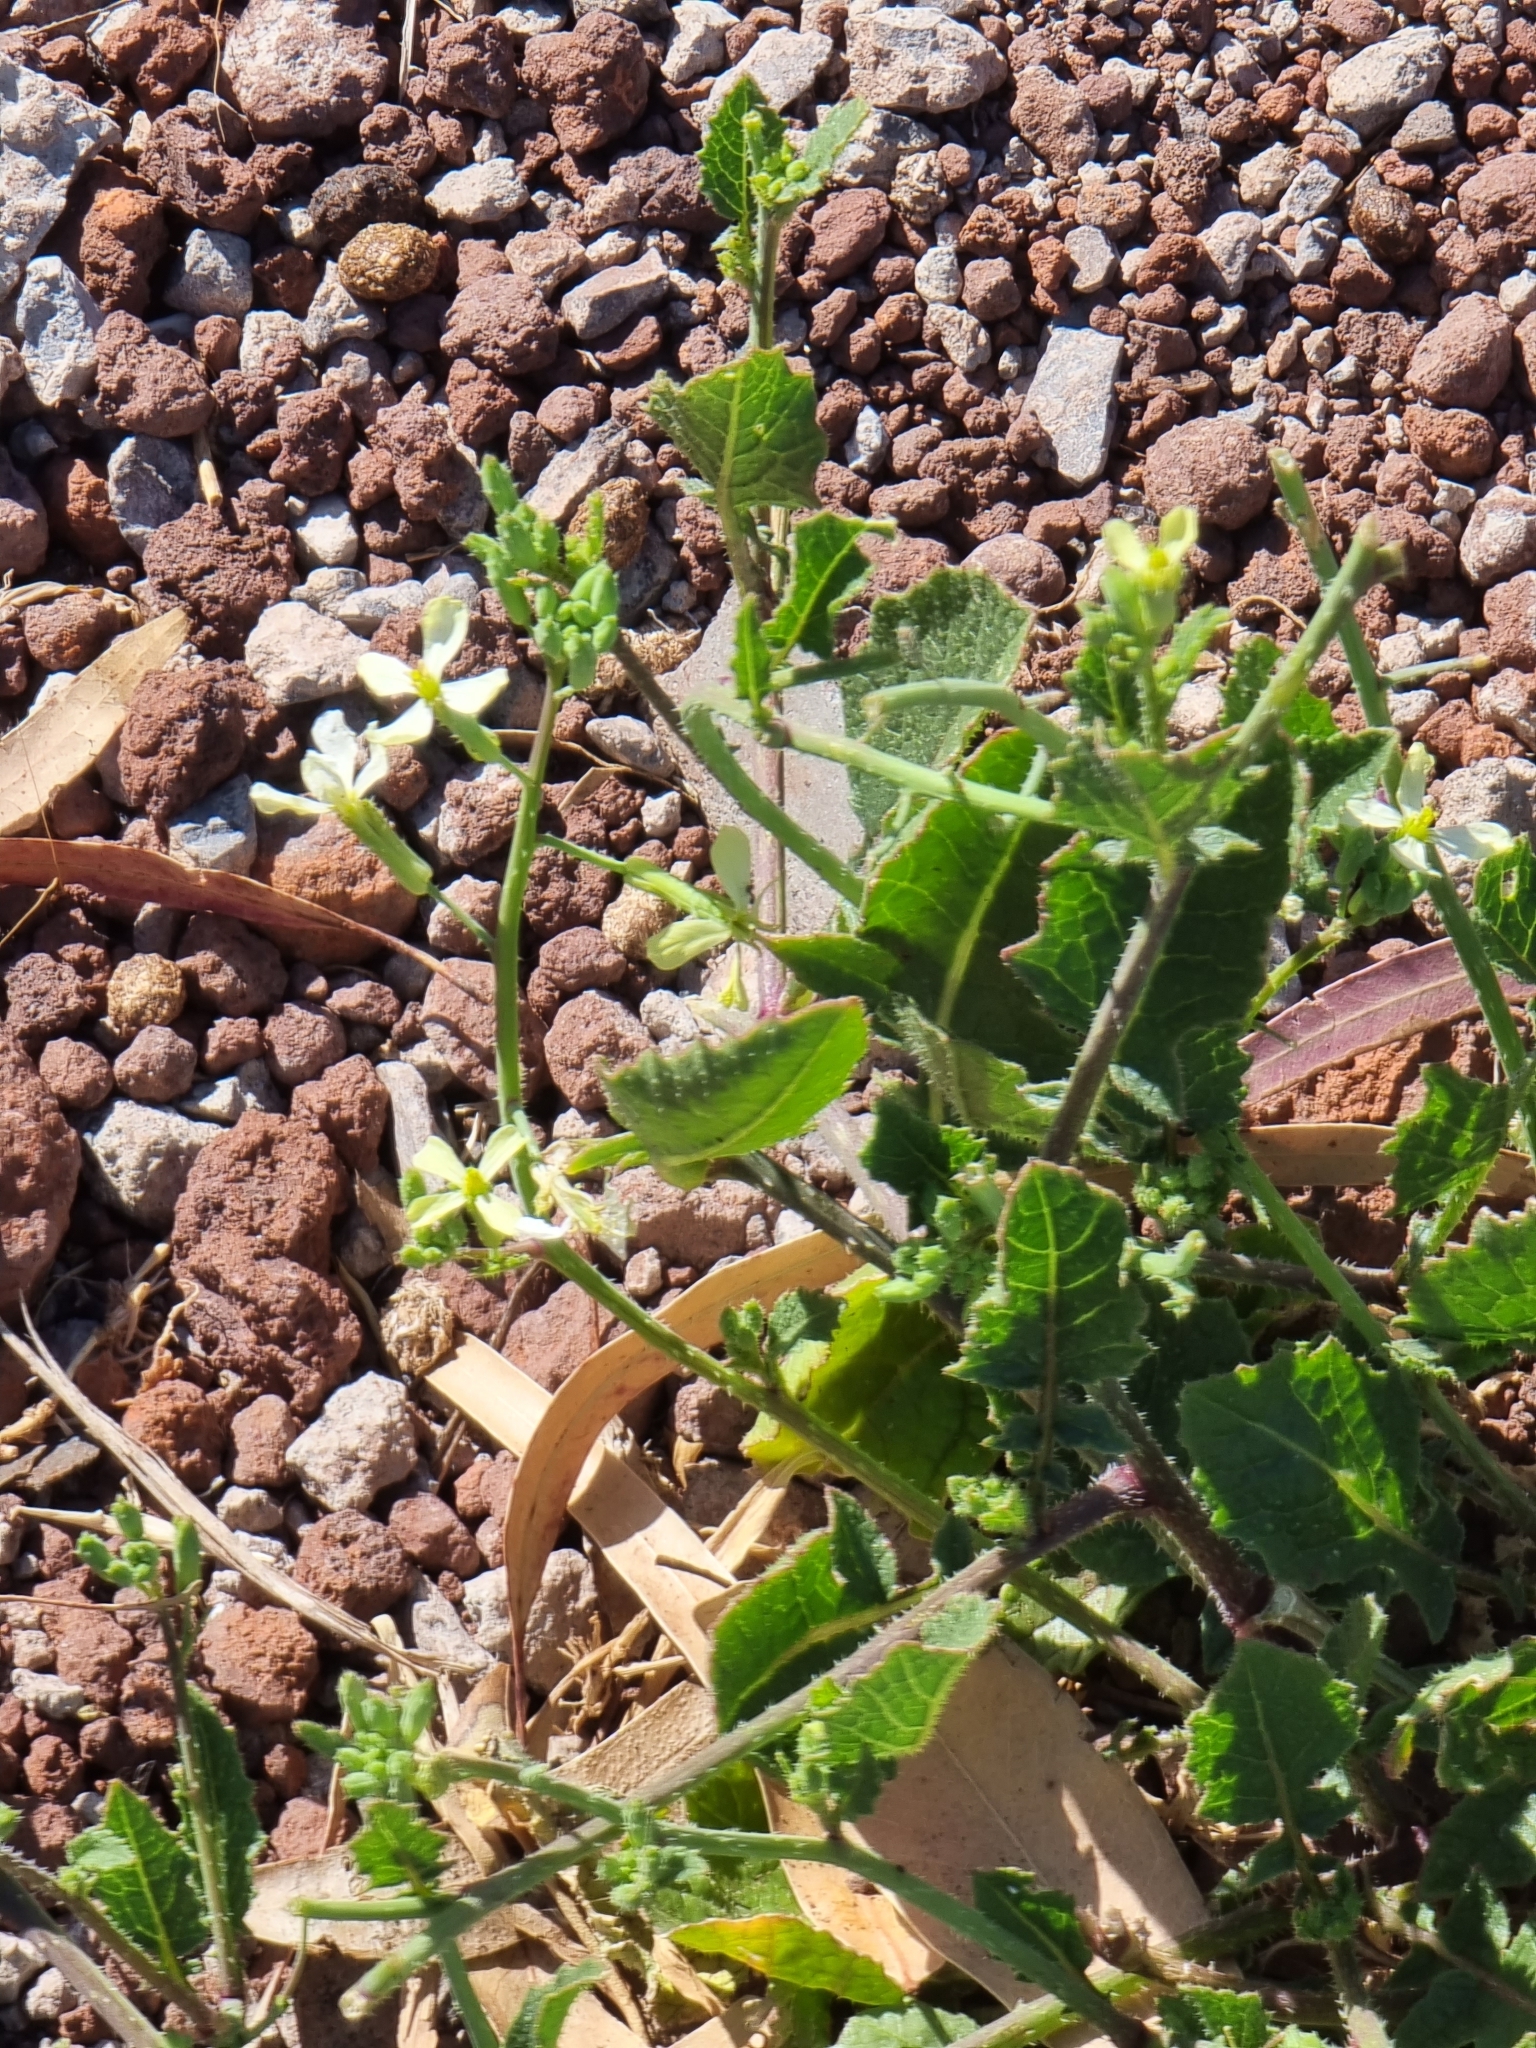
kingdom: Plantae
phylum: Tracheophyta
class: Magnoliopsida
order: Brassicales
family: Brassicaceae
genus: Raphanus
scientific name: Raphanus raphanistrum
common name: Wild radish
